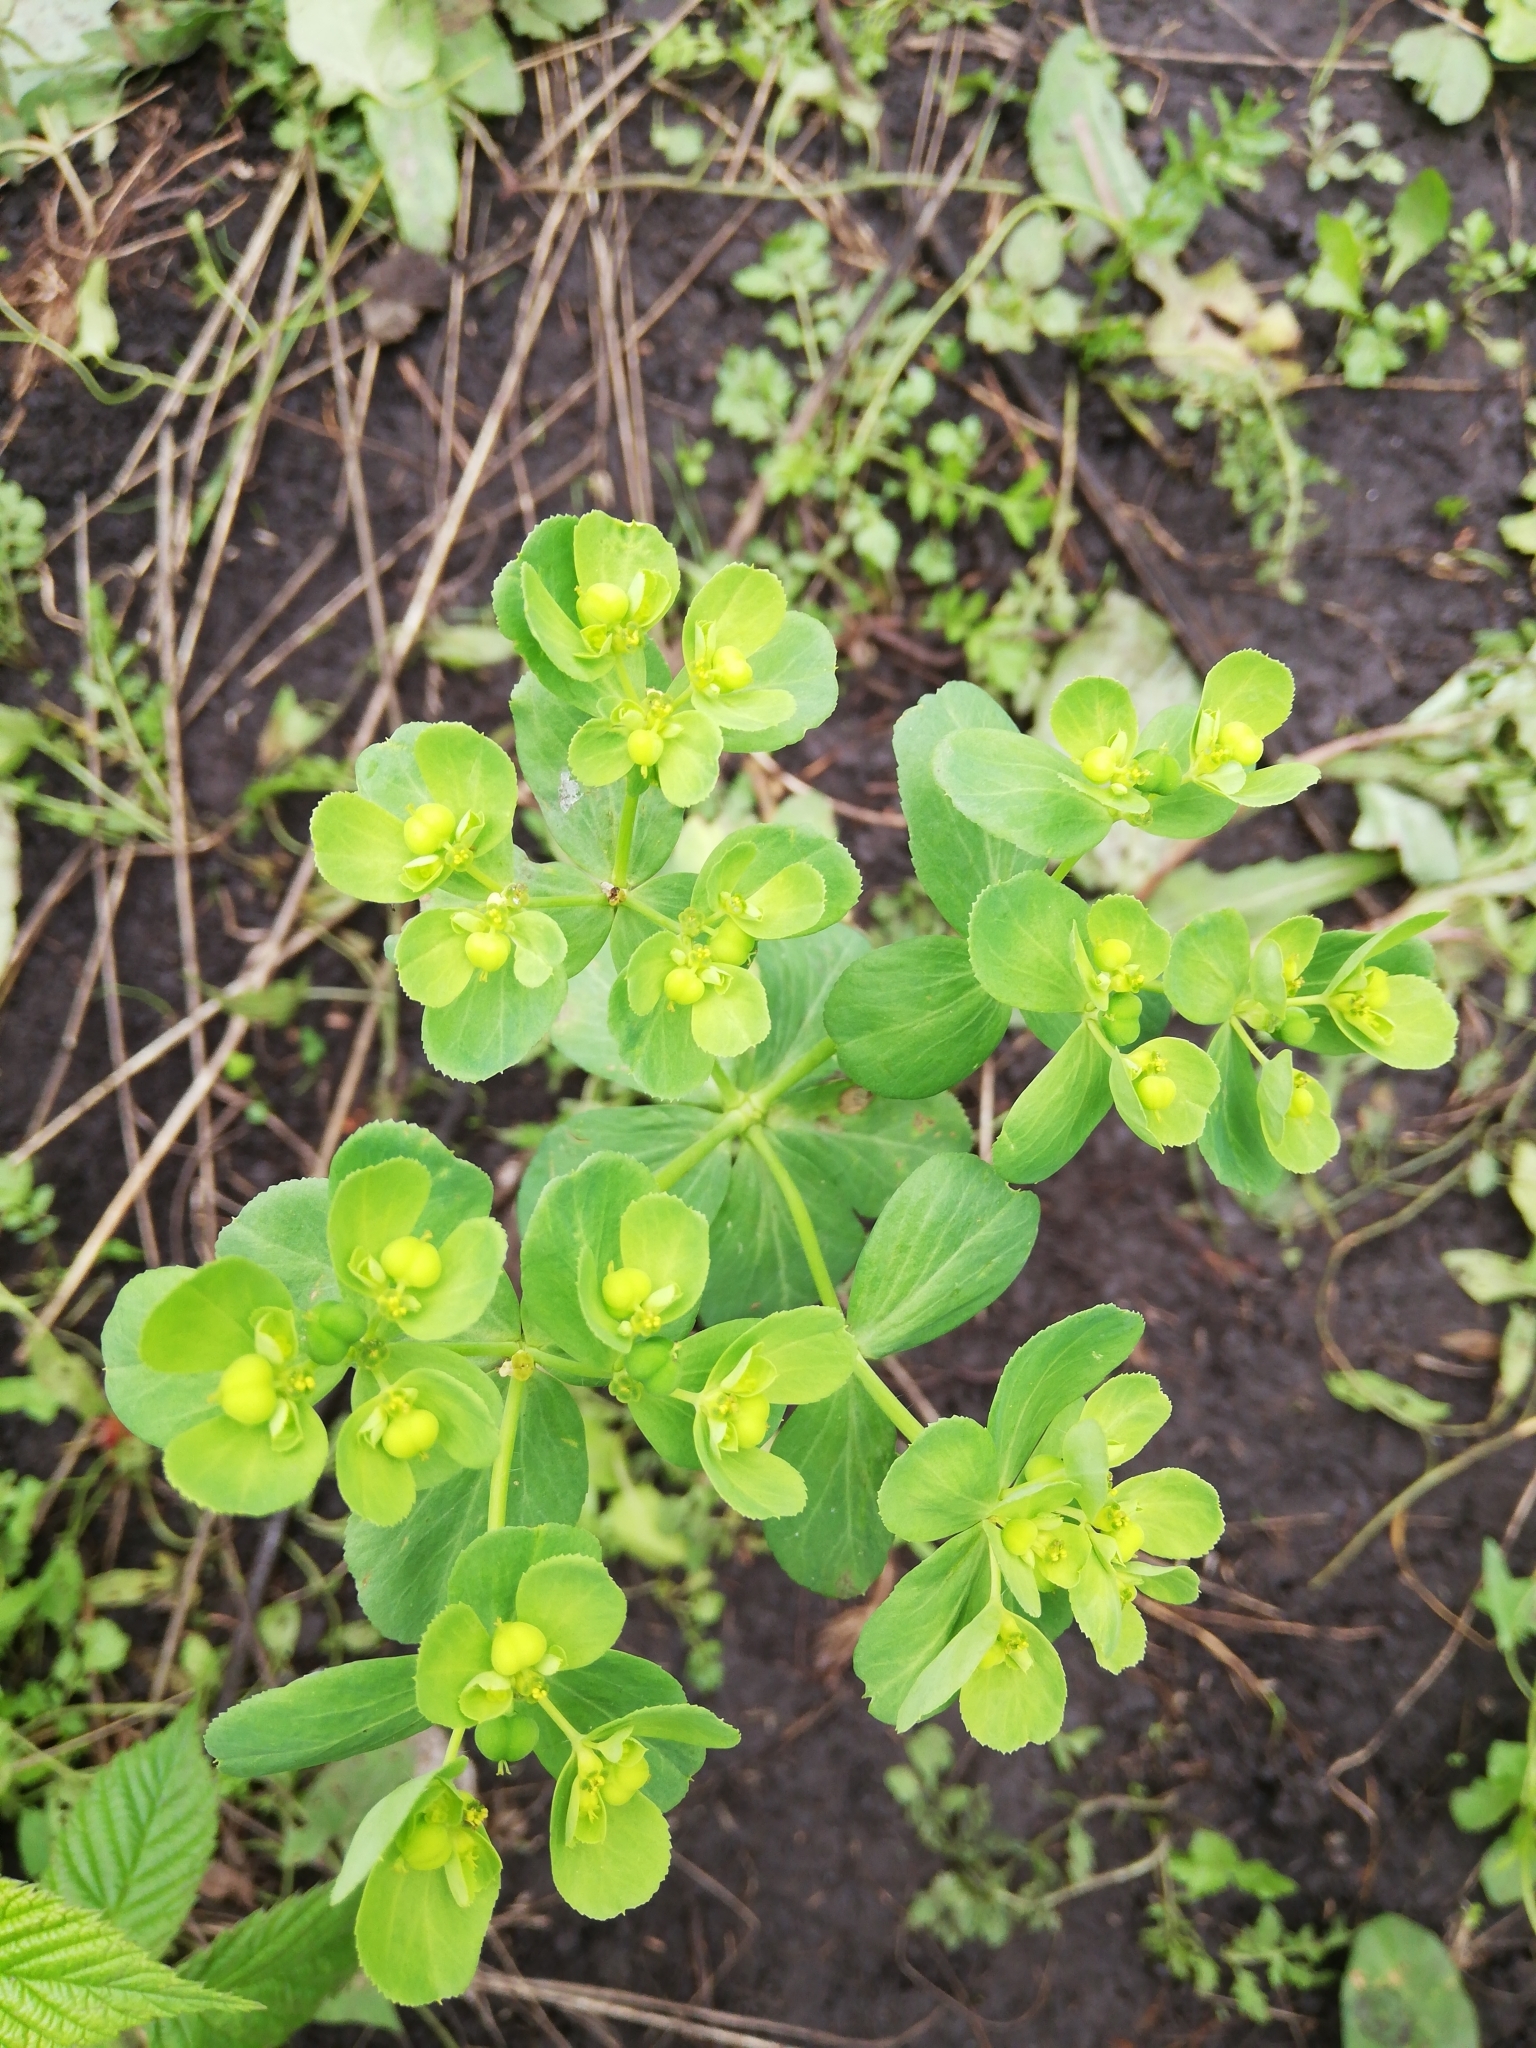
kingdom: Plantae
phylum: Tracheophyta
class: Magnoliopsida
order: Malpighiales
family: Euphorbiaceae
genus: Euphorbia
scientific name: Euphorbia helioscopia
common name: Sun spurge
